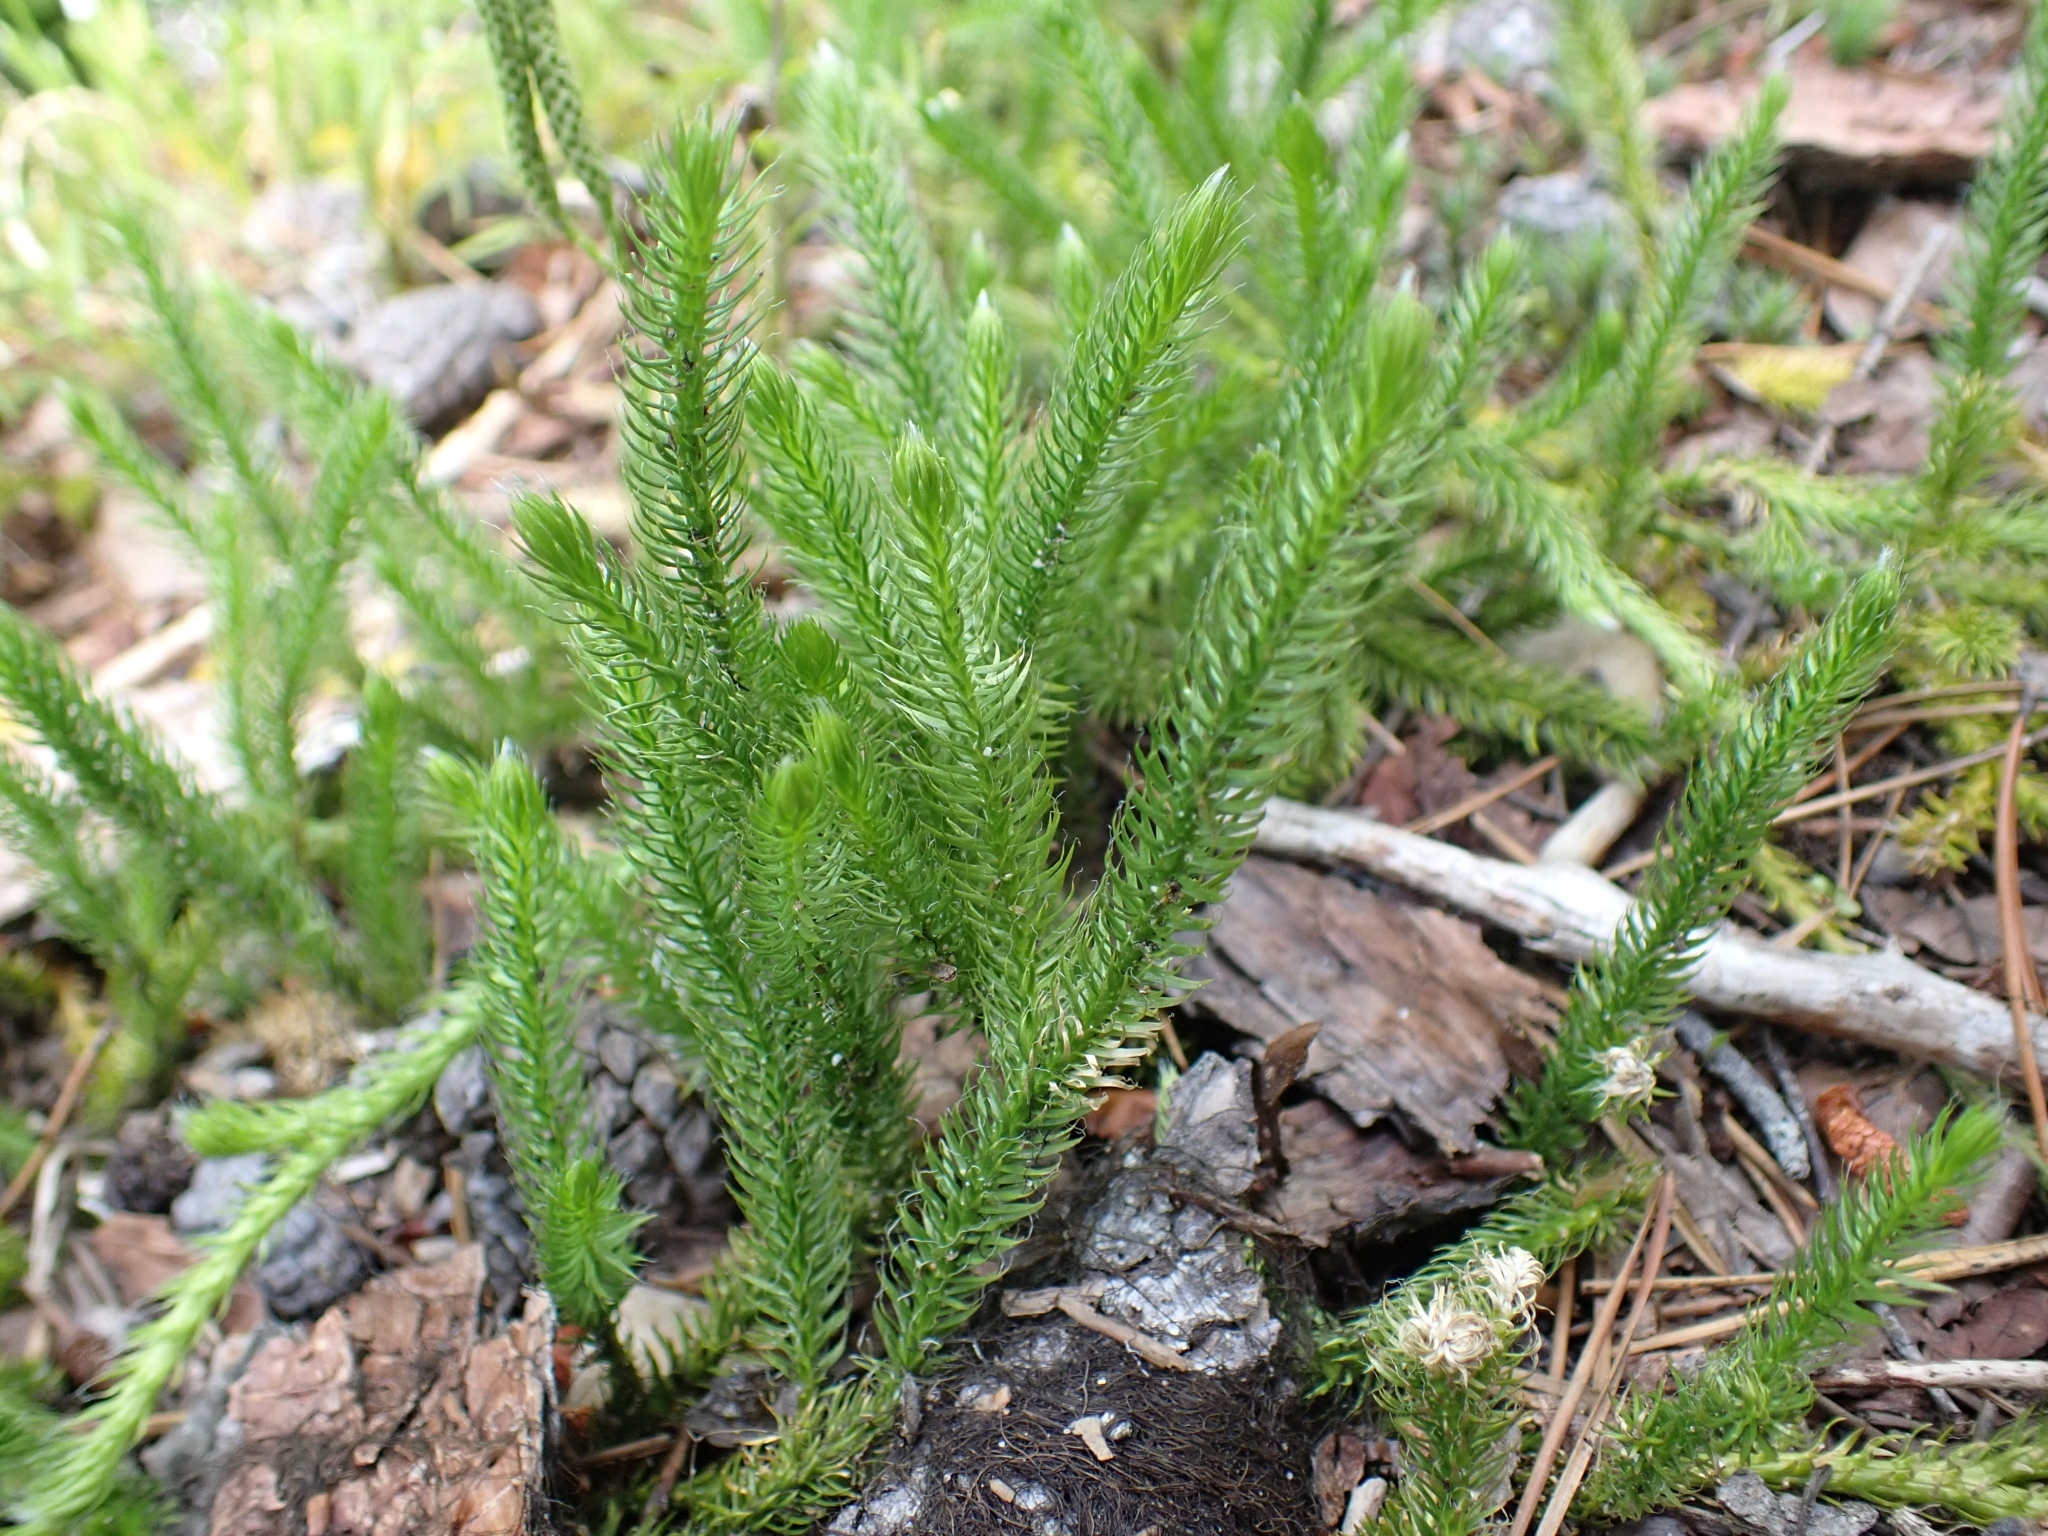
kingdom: Plantae
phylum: Tracheophyta
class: Lycopodiopsida
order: Lycopodiales
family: Lycopodiaceae
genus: Lycopodium
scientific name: Lycopodium clavatum
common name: Stag's-horn clubmoss
